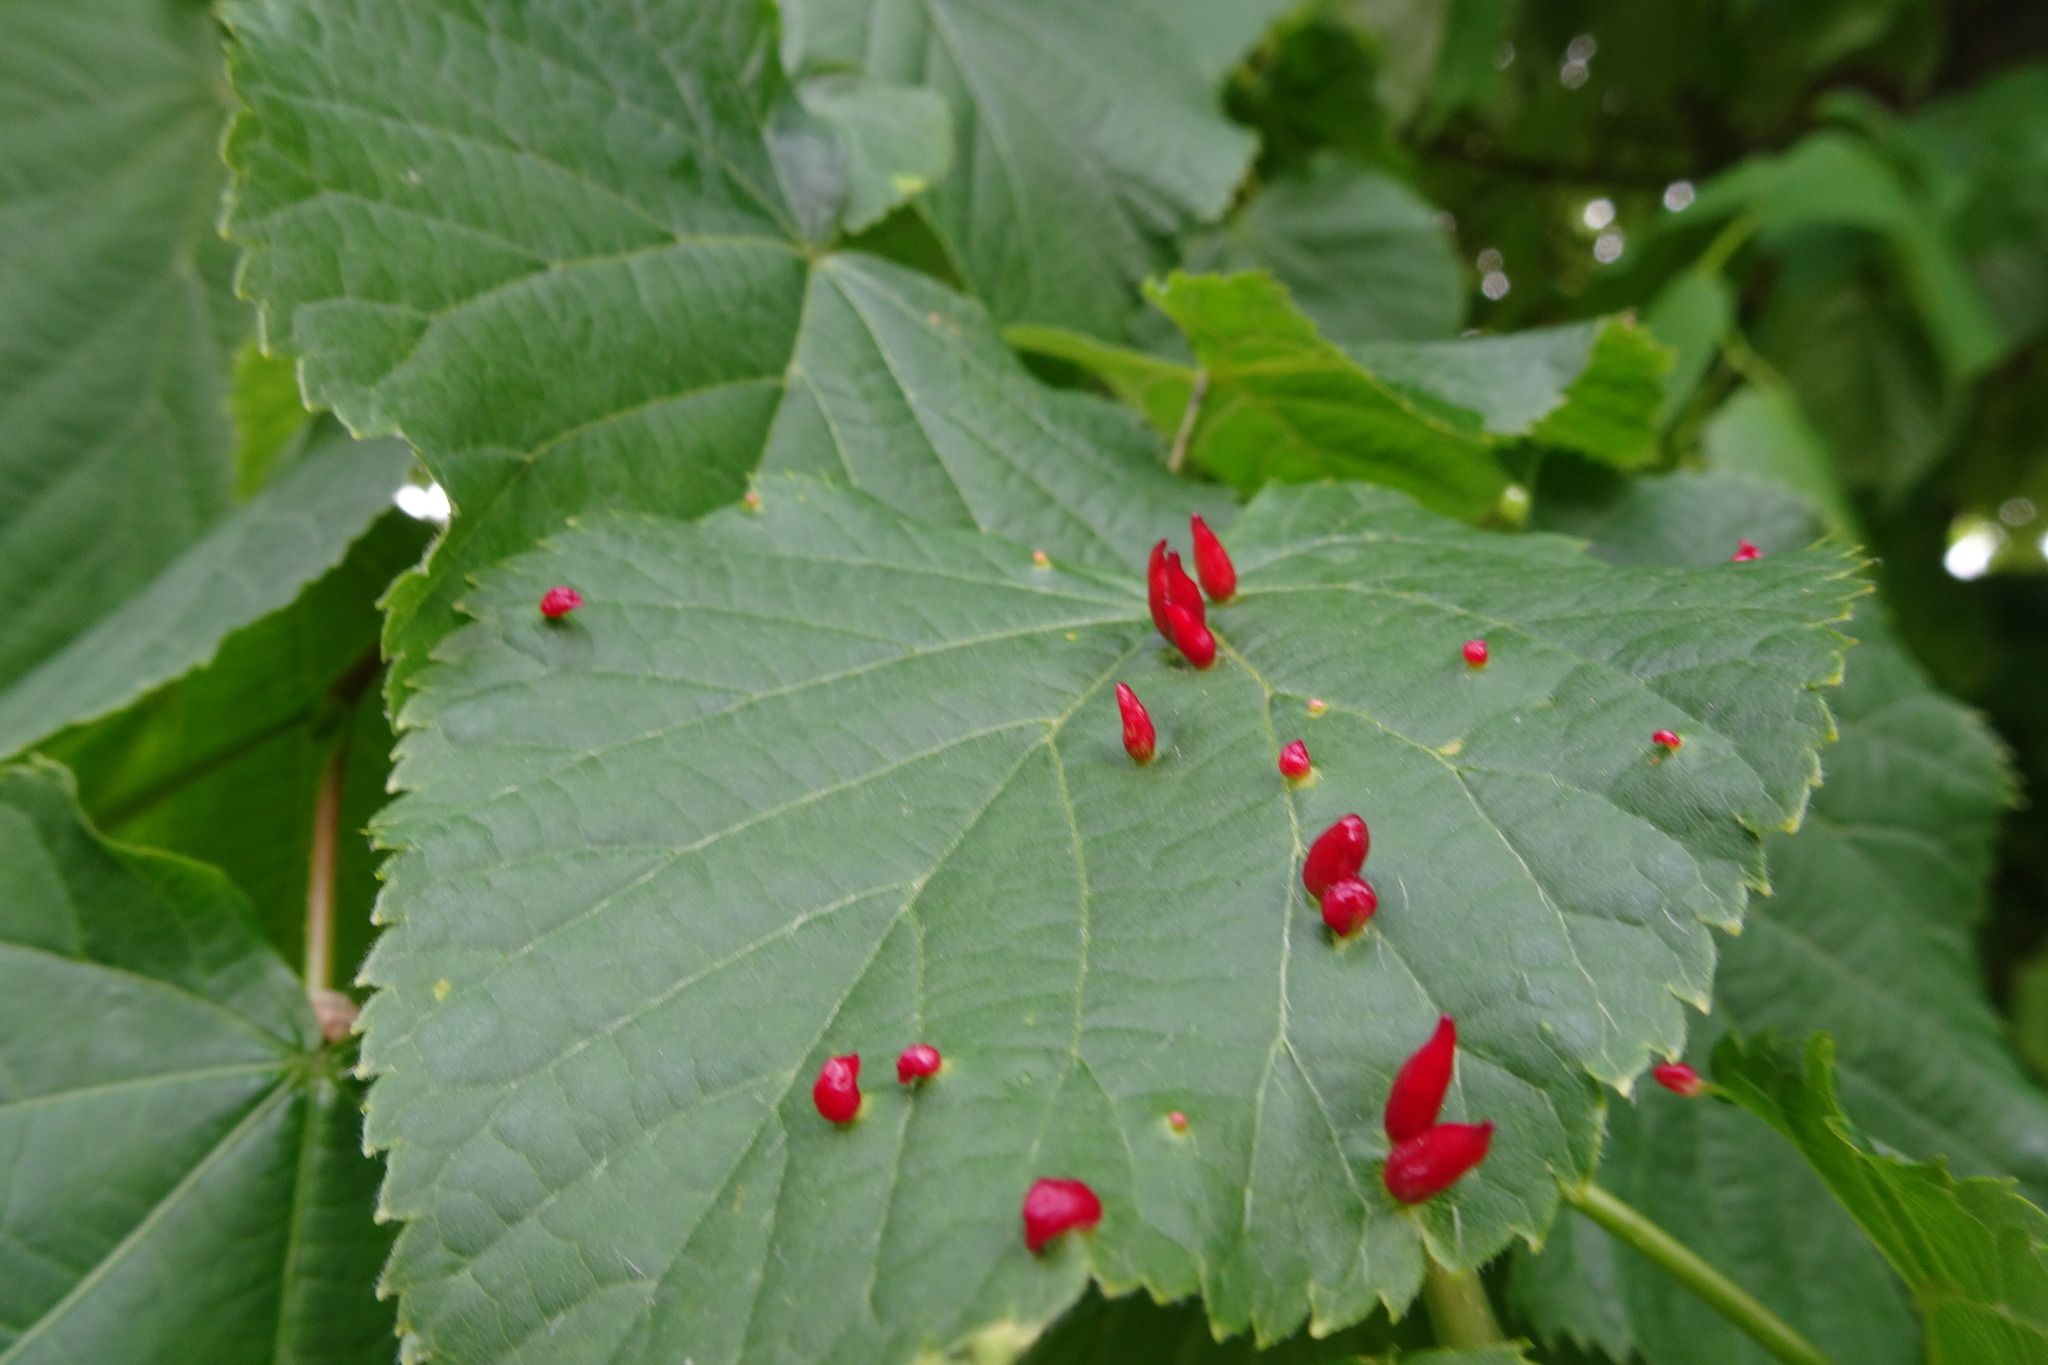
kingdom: Animalia
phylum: Arthropoda
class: Arachnida
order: Trombidiformes
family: Eriophyidae
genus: Eriophyes
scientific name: Eriophyes tiliae
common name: Red nail gall mite
